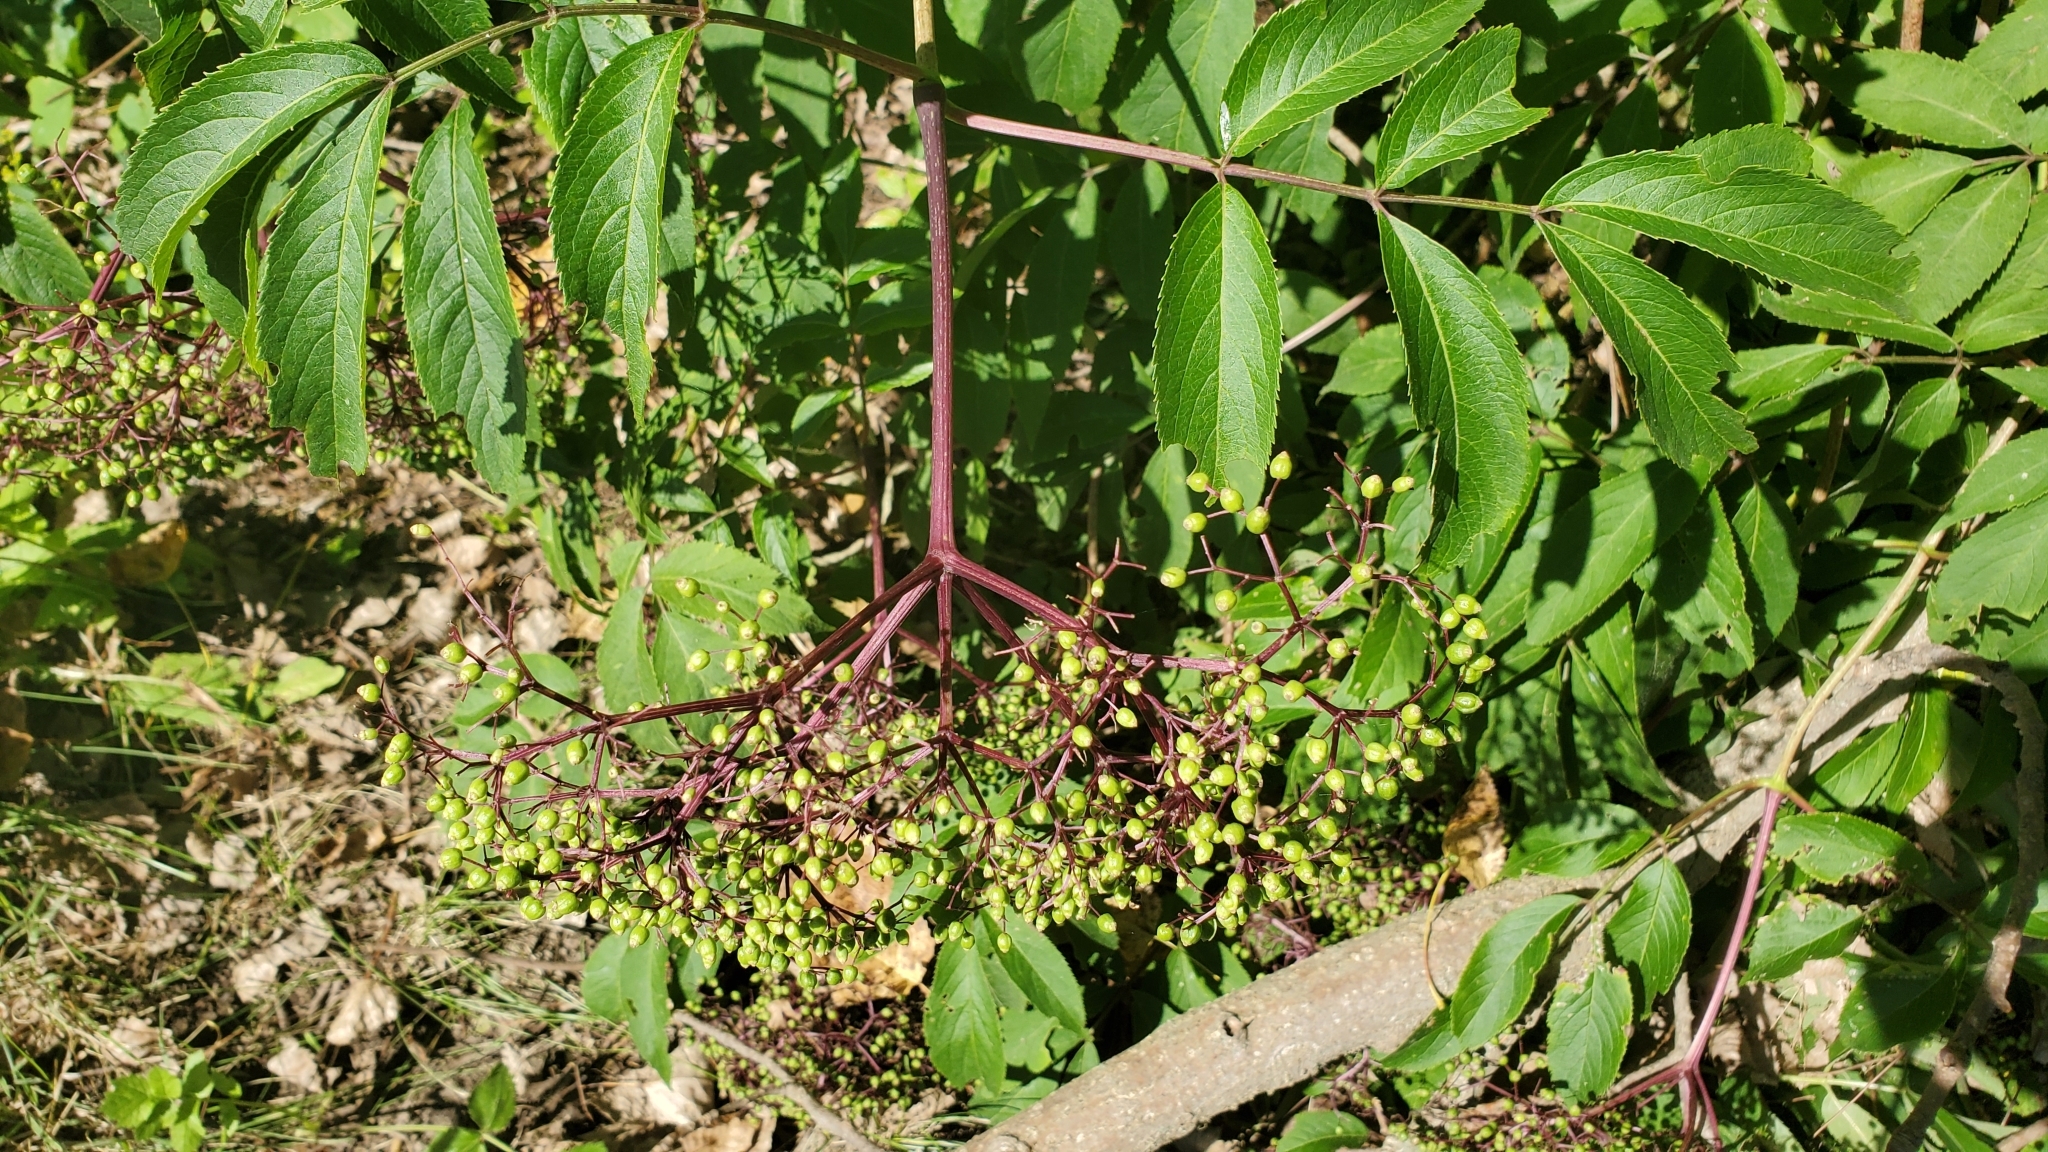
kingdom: Plantae
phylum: Tracheophyta
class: Magnoliopsida
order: Dipsacales
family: Viburnaceae
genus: Sambucus
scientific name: Sambucus canadensis
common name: American elder
